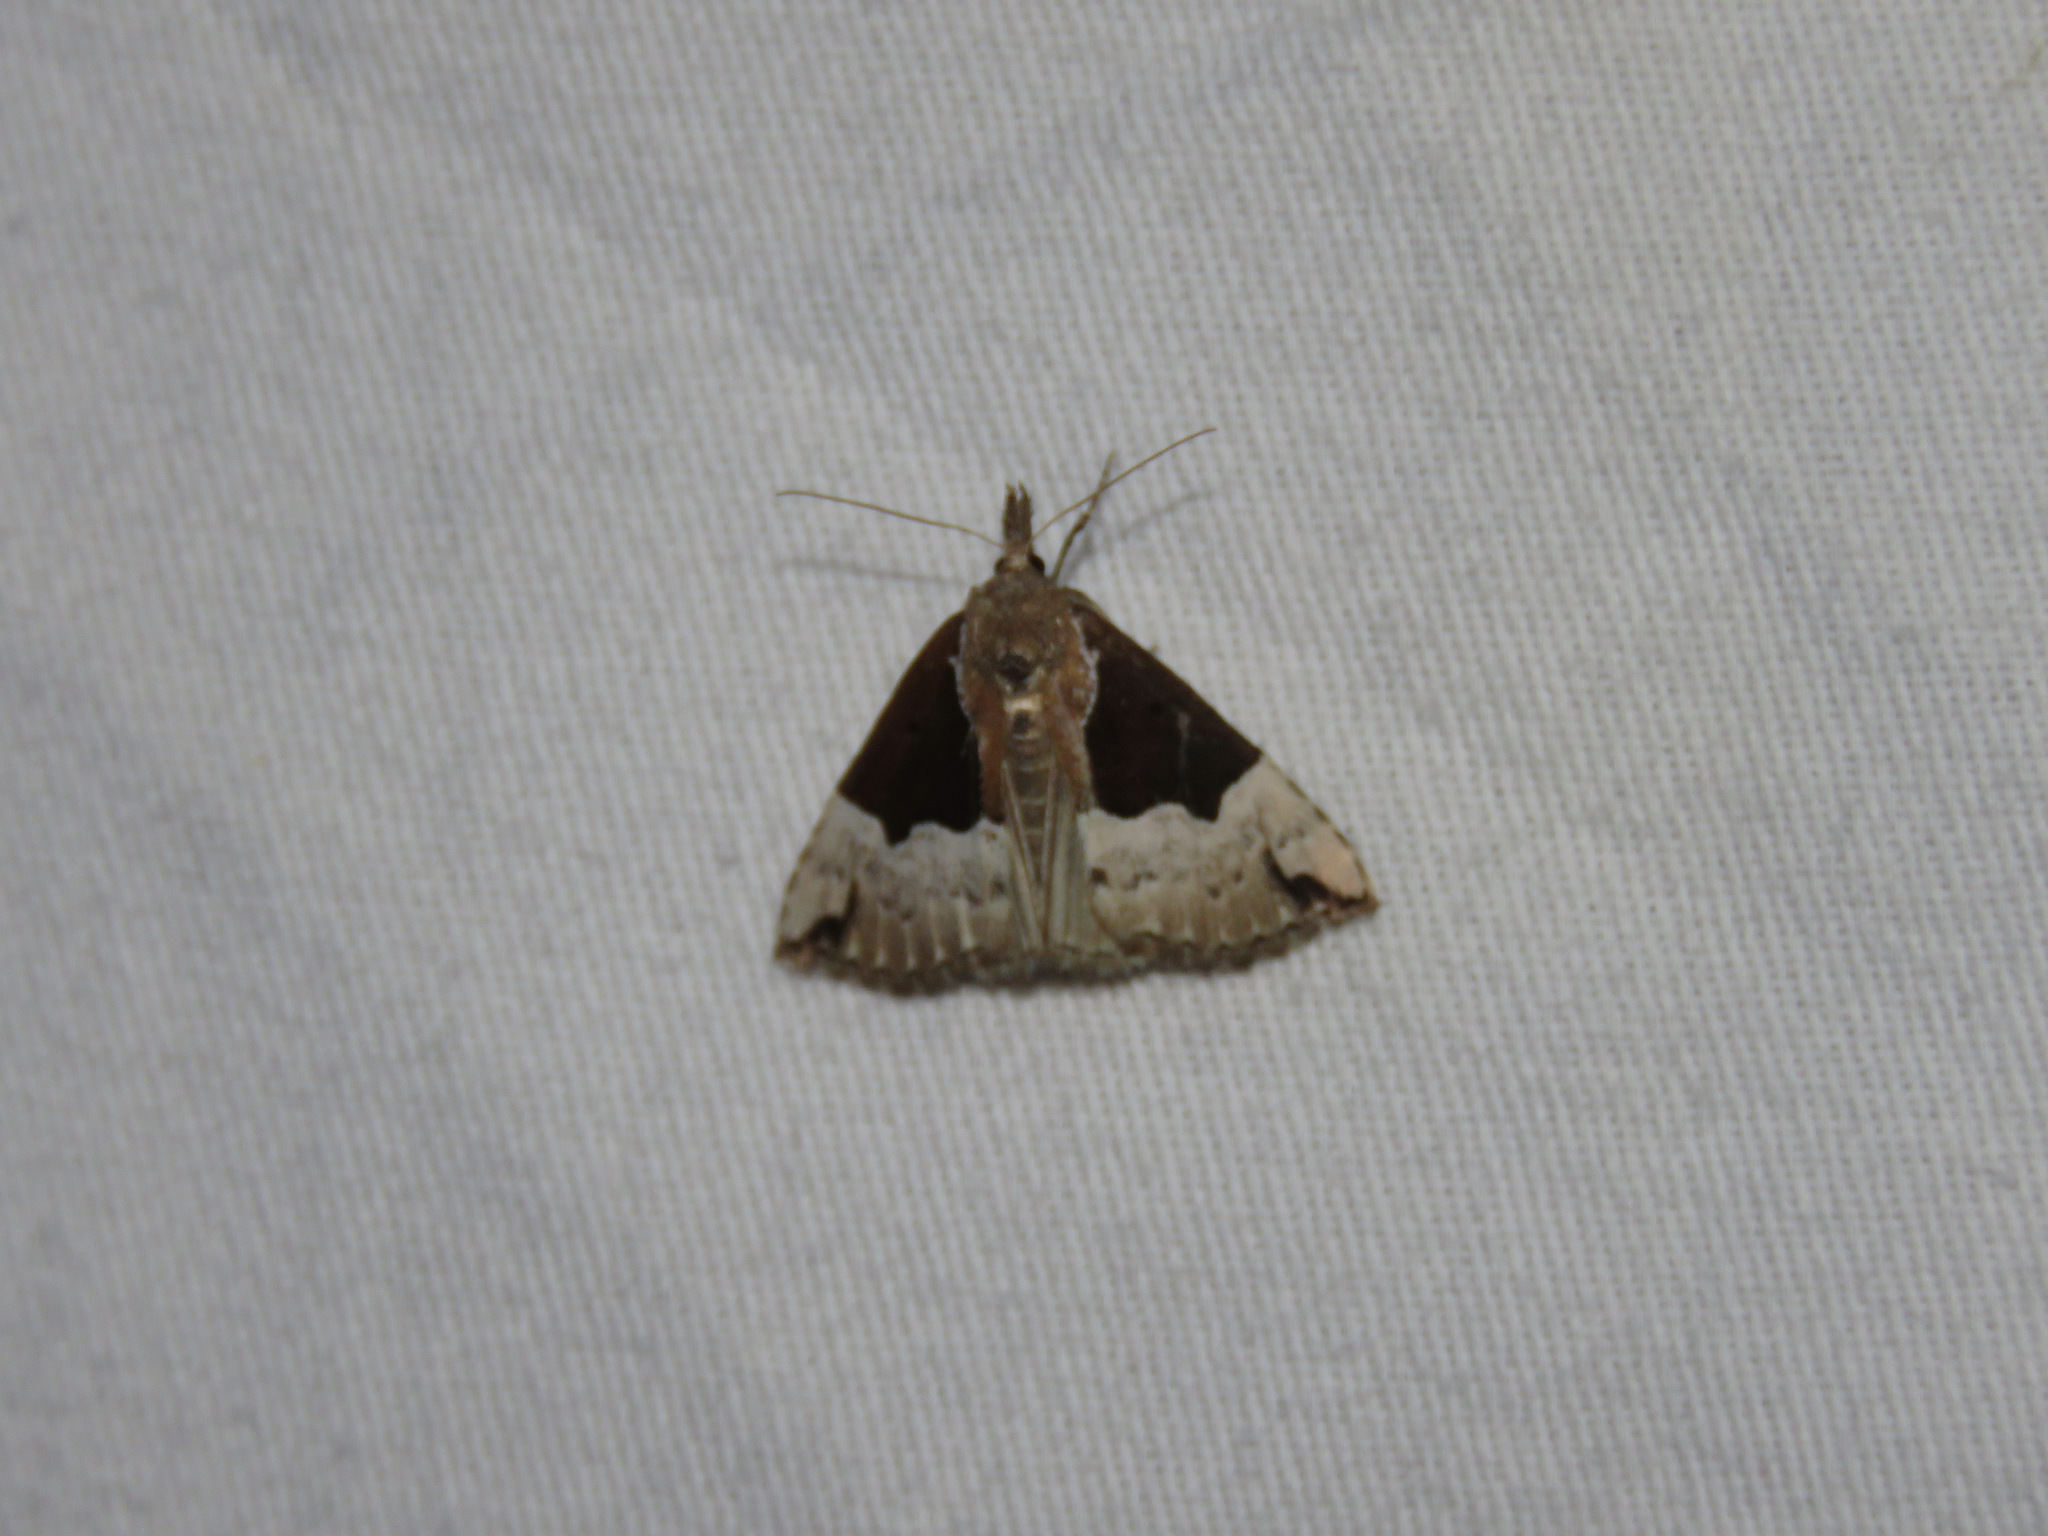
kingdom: Animalia
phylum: Arthropoda
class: Insecta
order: Lepidoptera
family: Erebidae
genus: Hypena
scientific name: Hypena bijugalis
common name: Dimorphic bomolocha moth
